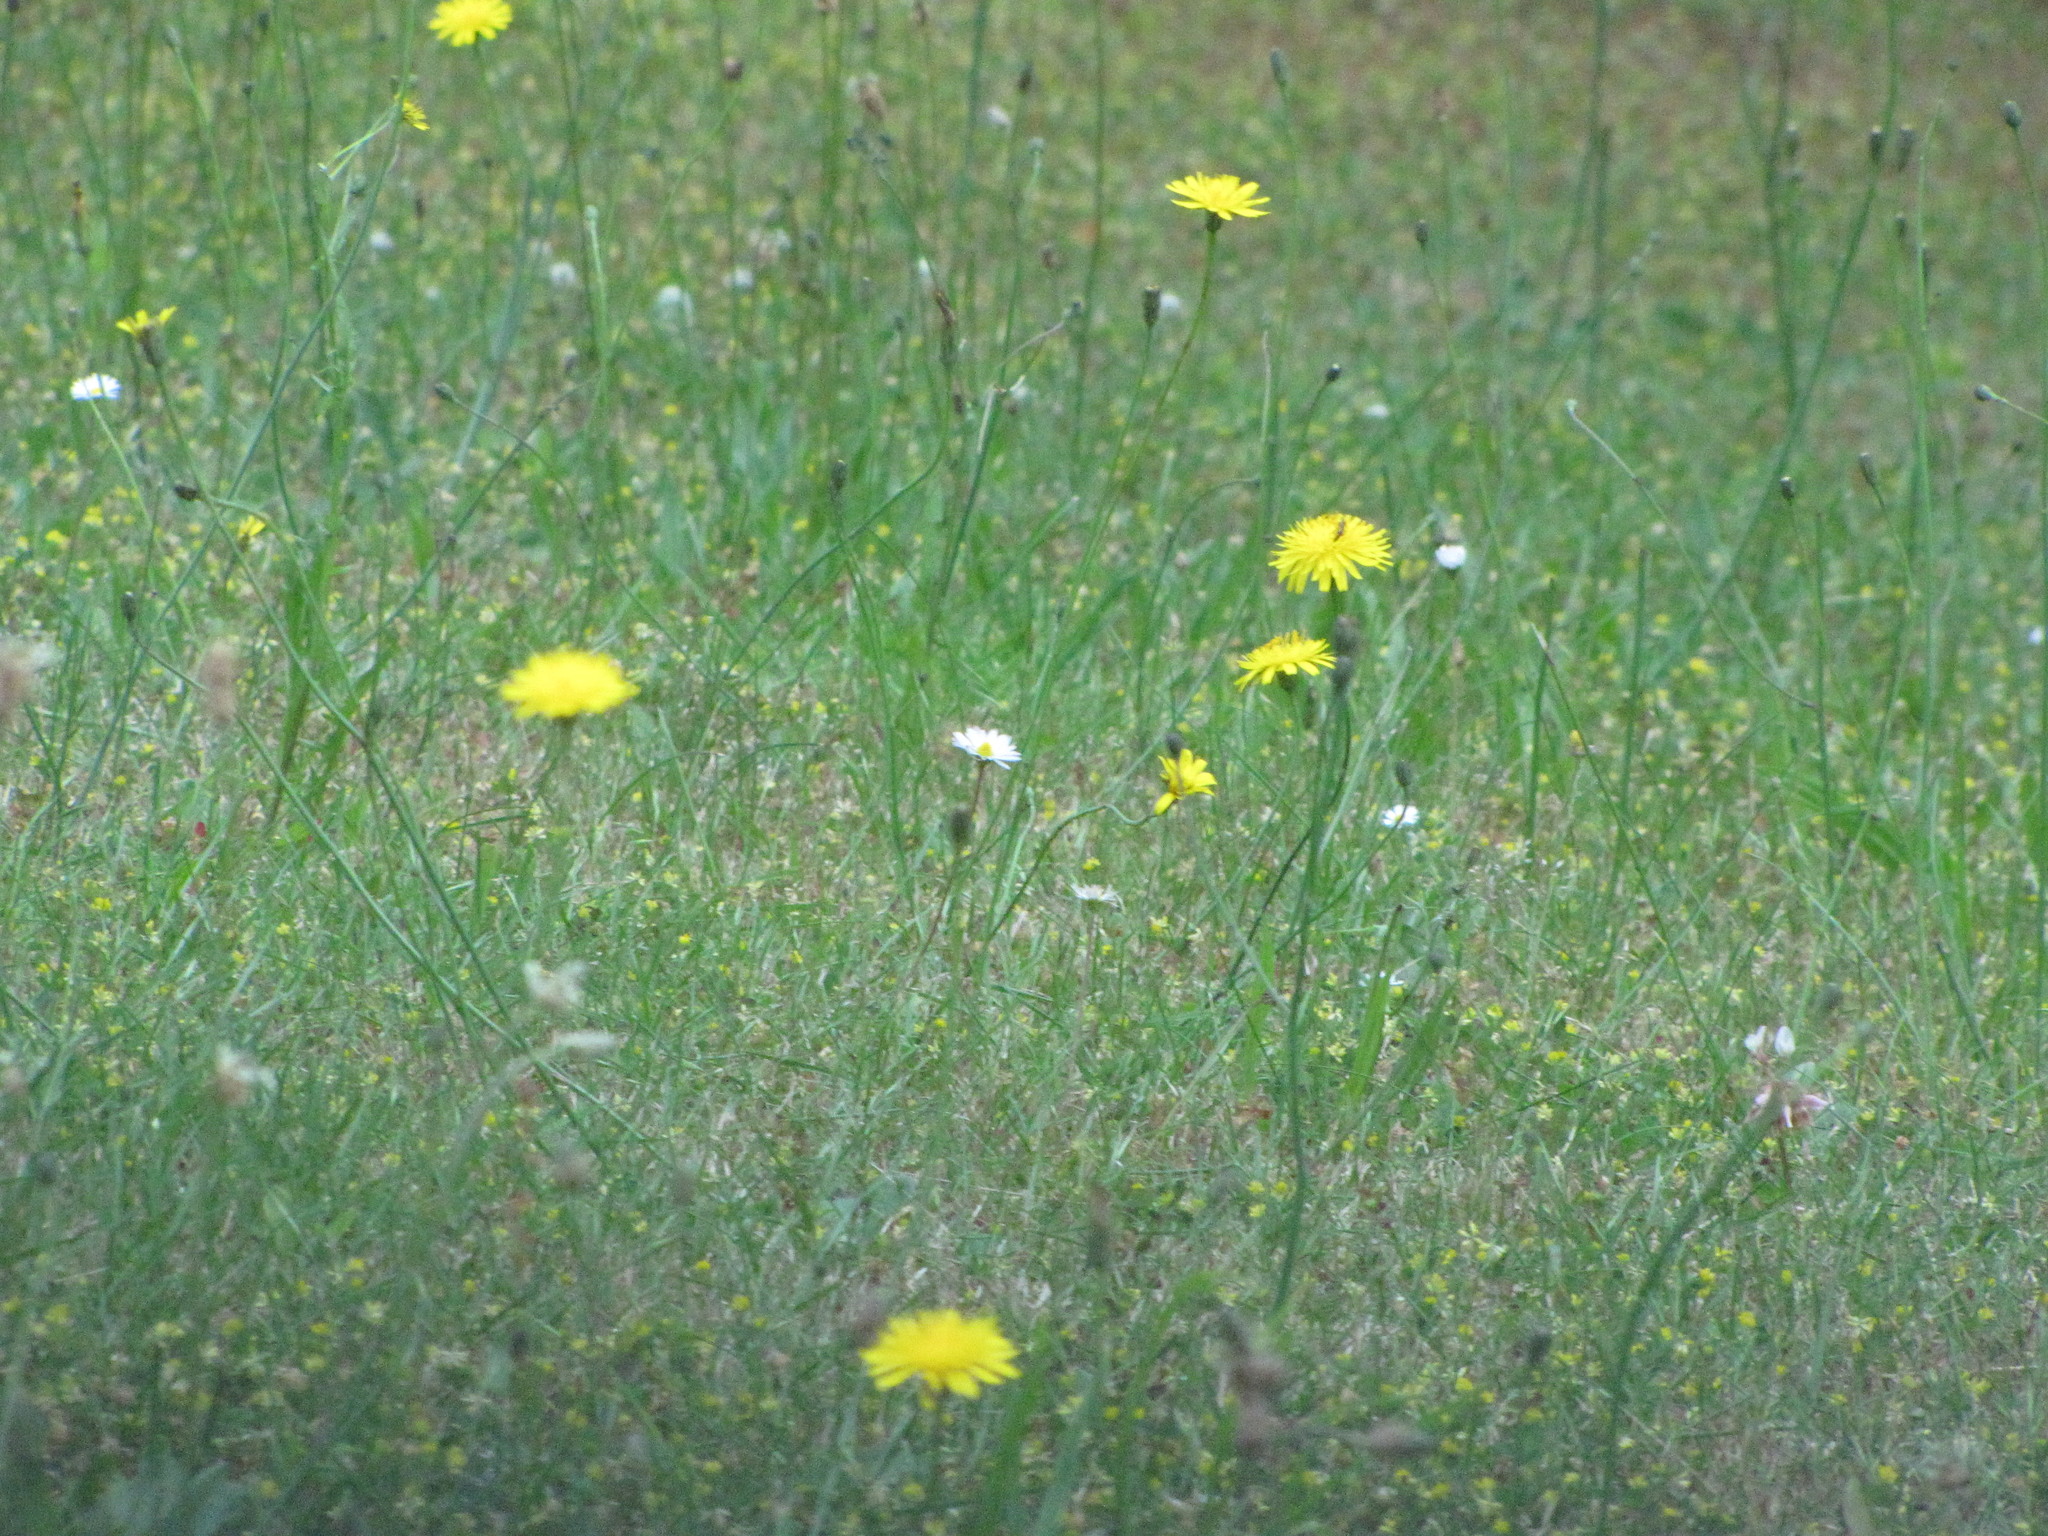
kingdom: Plantae
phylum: Tracheophyta
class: Magnoliopsida
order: Asterales
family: Asteraceae
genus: Taraxacum
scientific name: Taraxacum officinale
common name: Common dandelion
